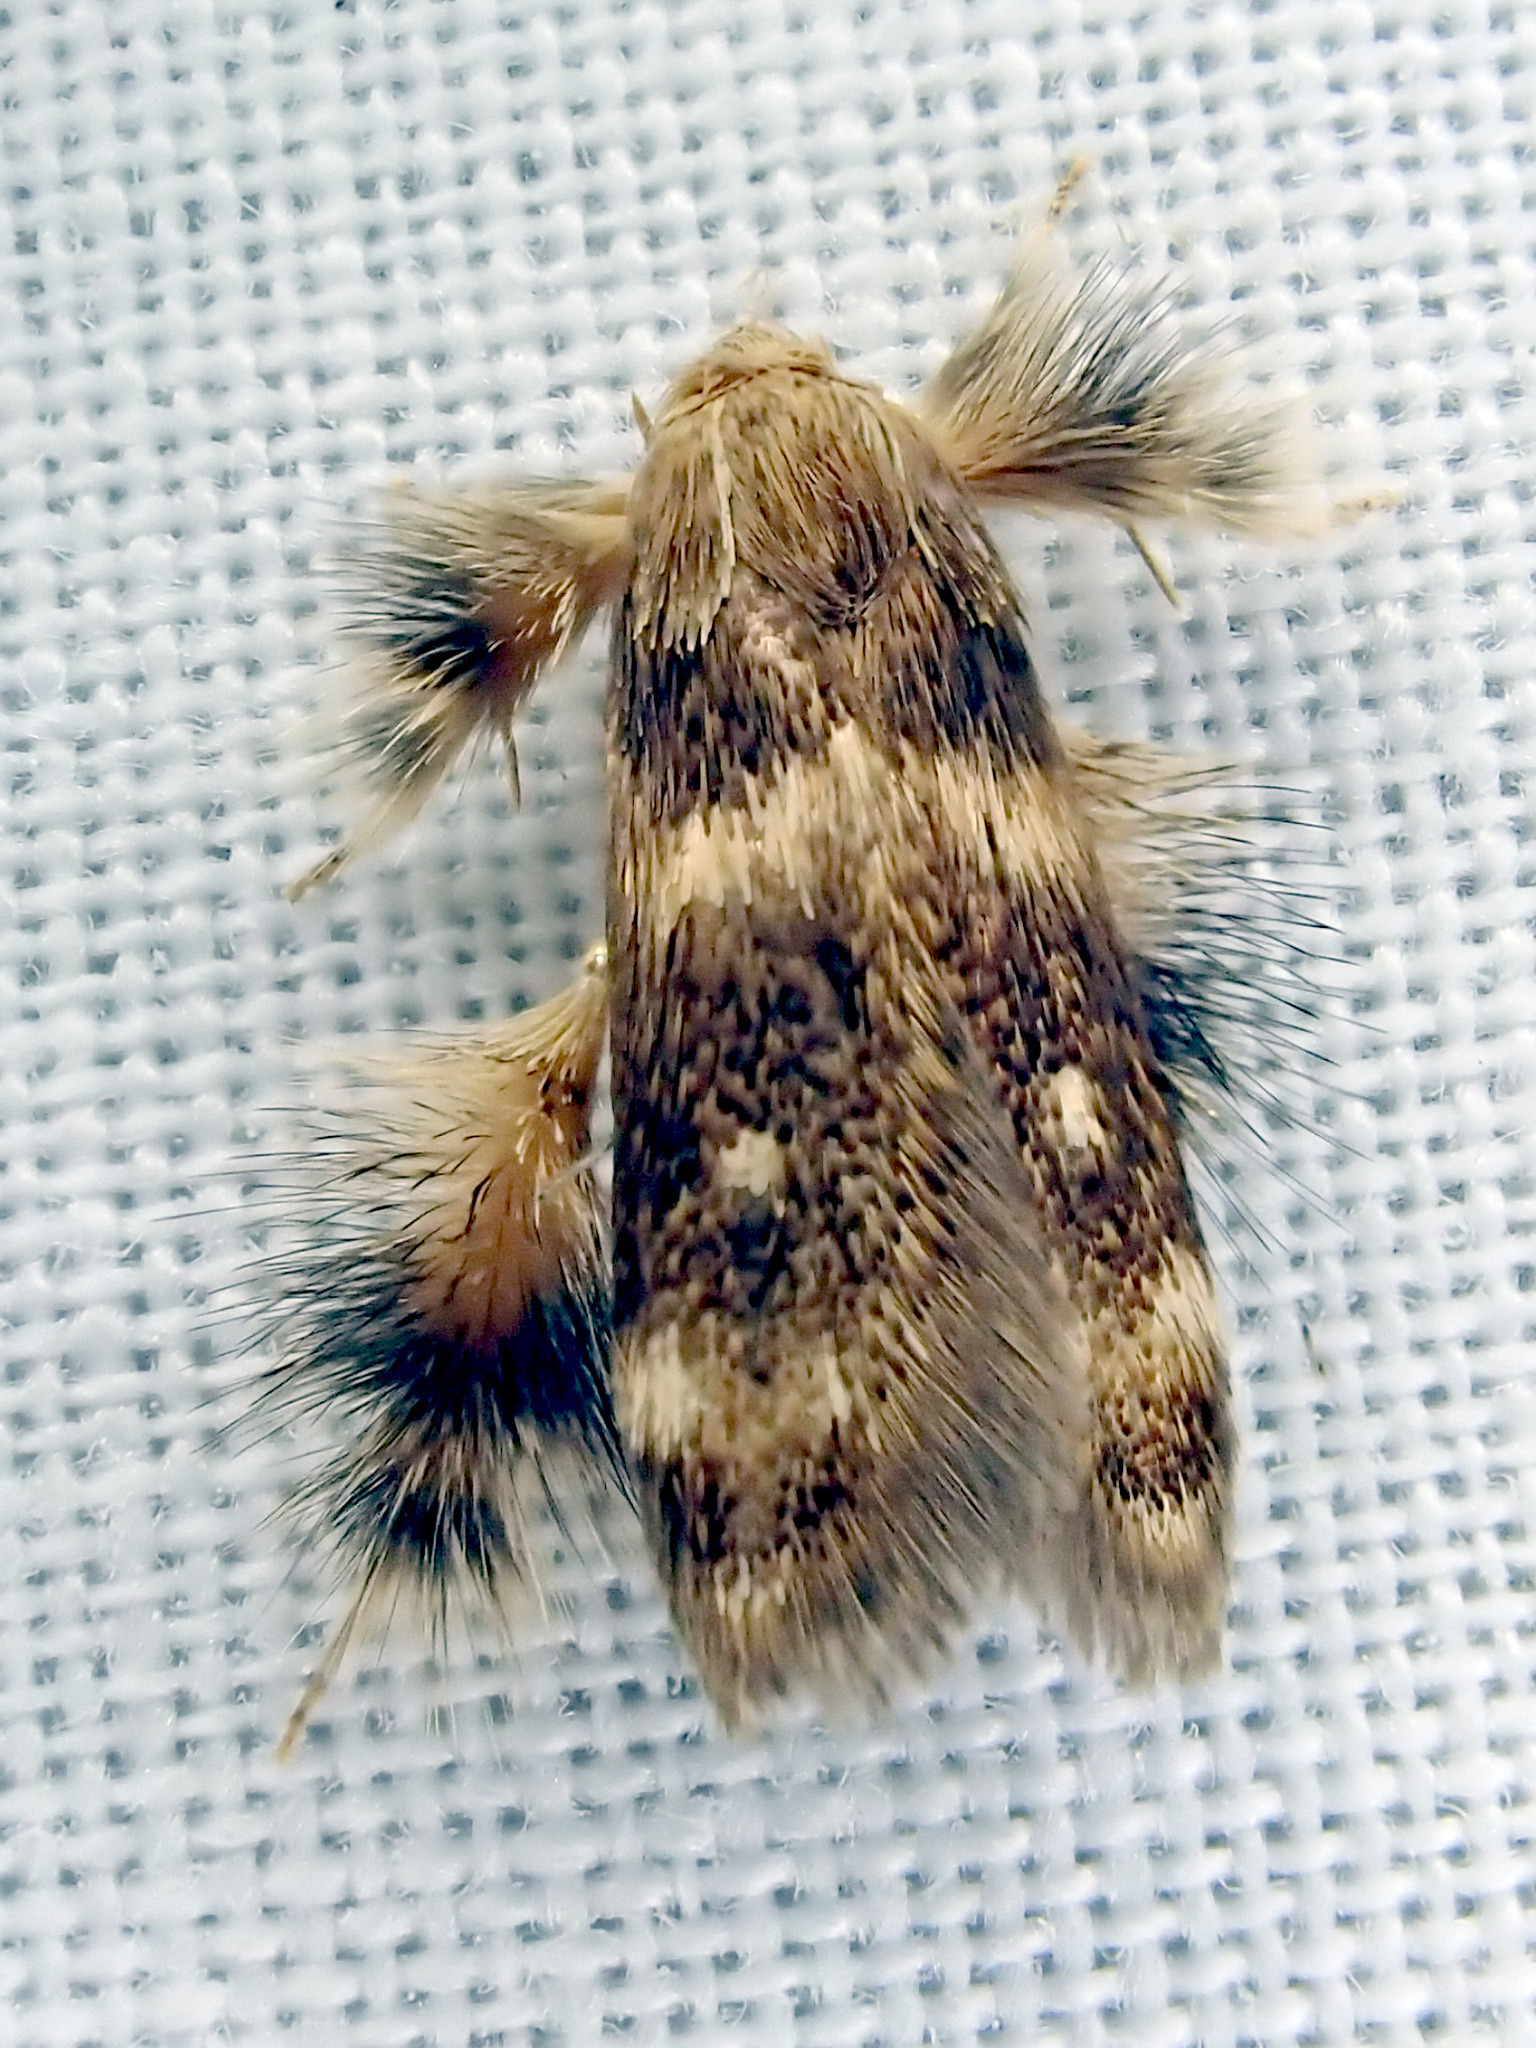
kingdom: Animalia
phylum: Arthropoda
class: Insecta
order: Lepidoptera
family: Oecophoridae
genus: Zatrichodes
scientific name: Zatrichodes horrifica
